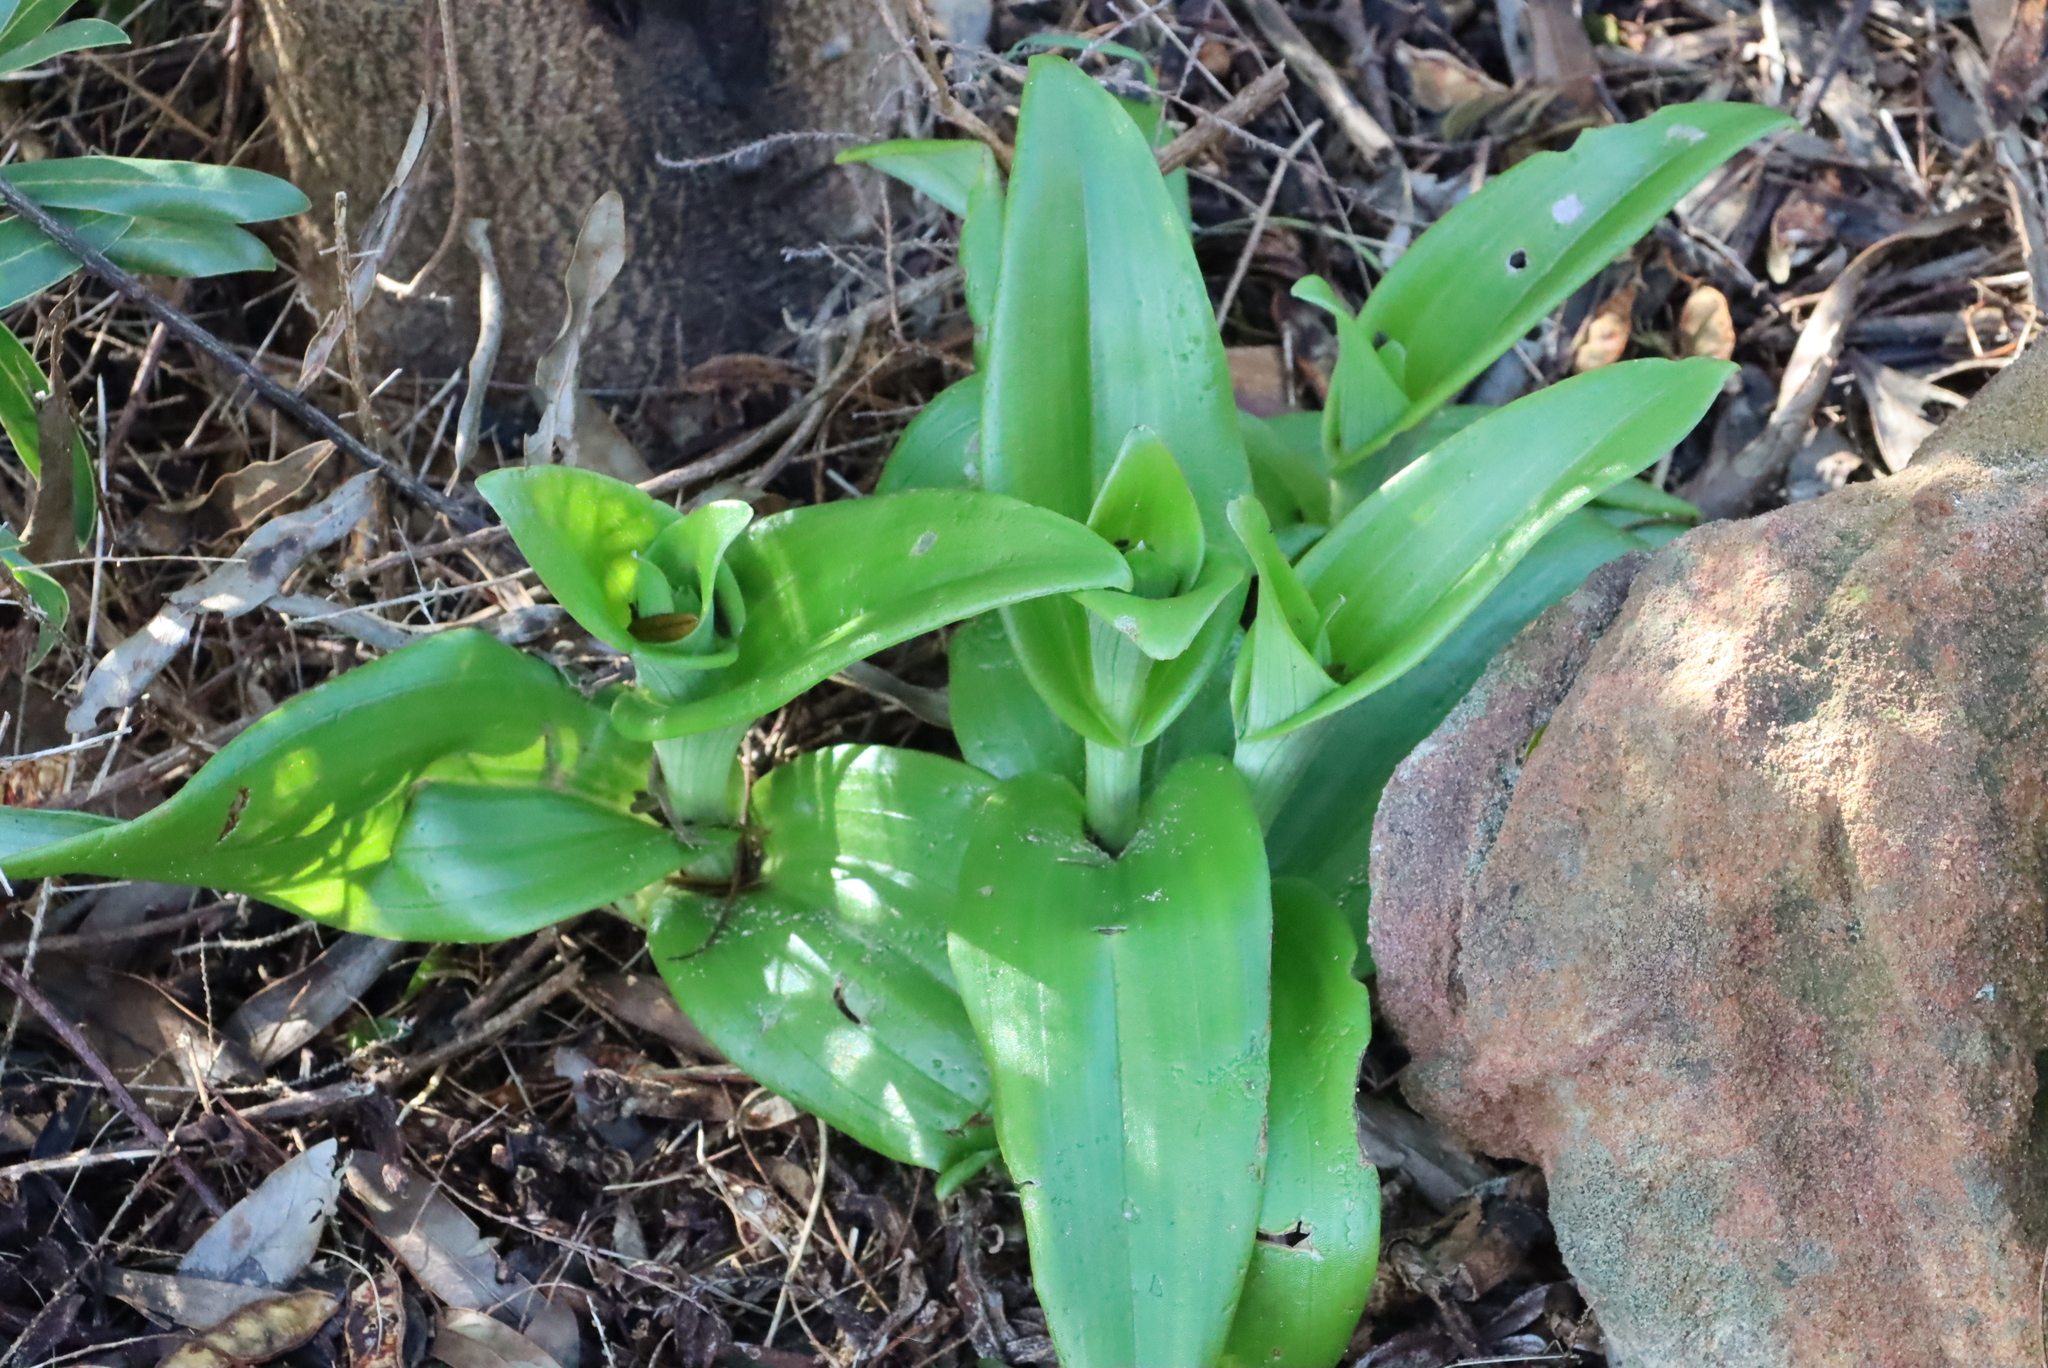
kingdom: Plantae
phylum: Tracheophyta
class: Liliopsida
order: Asparagales
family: Orchidaceae
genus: Satyrium
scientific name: Satyrium odorum
